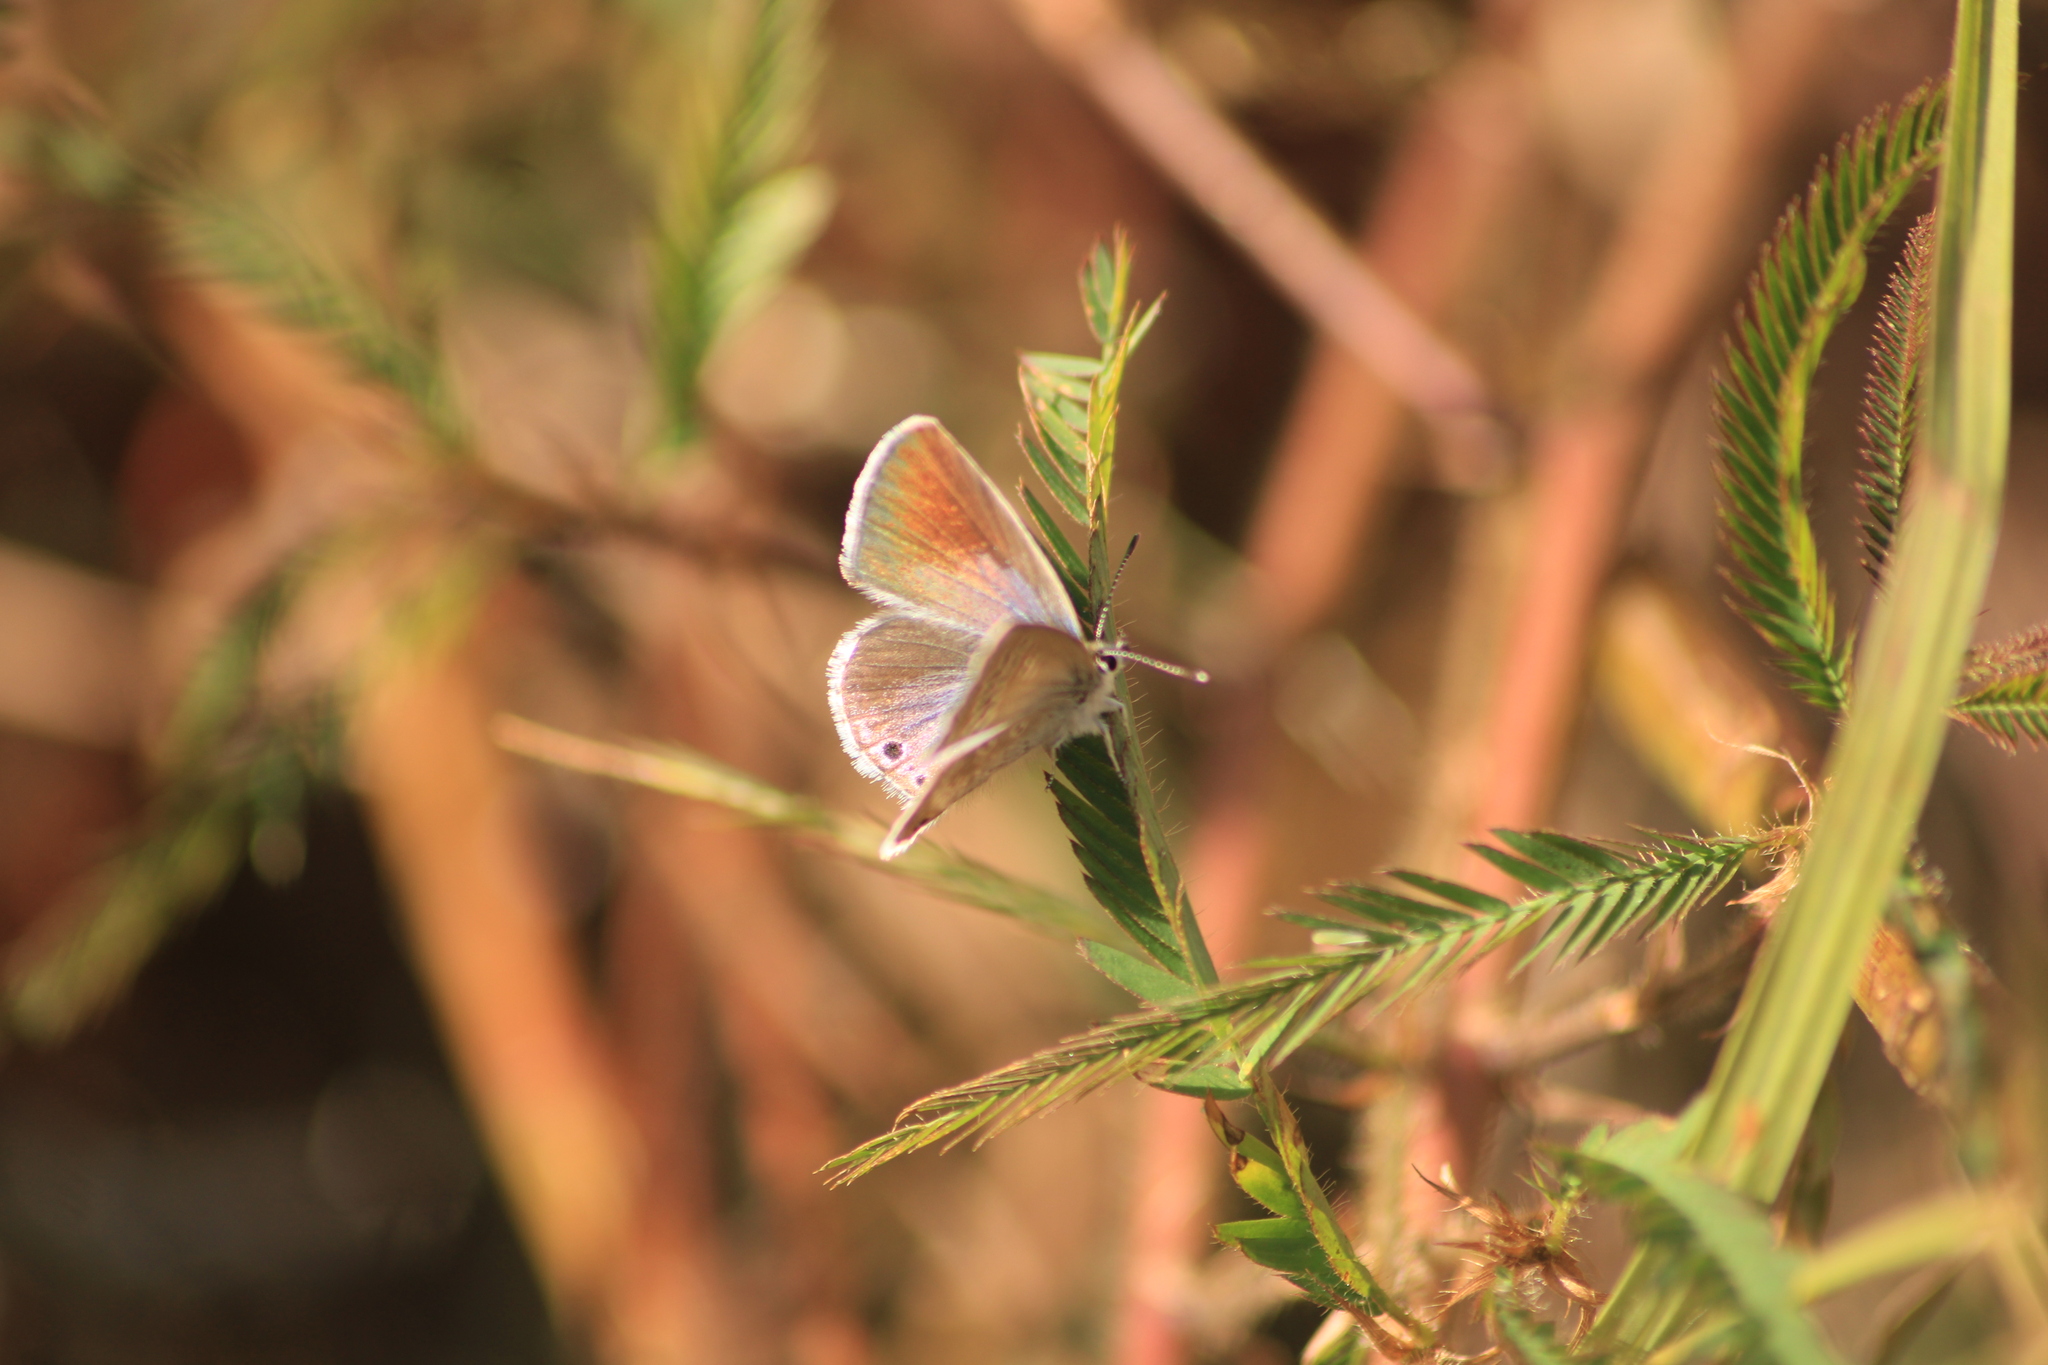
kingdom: Animalia
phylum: Arthropoda
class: Insecta
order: Lepidoptera
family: Lycaenidae
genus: Echinargus
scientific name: Echinargus isola
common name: Reakirt's blue
